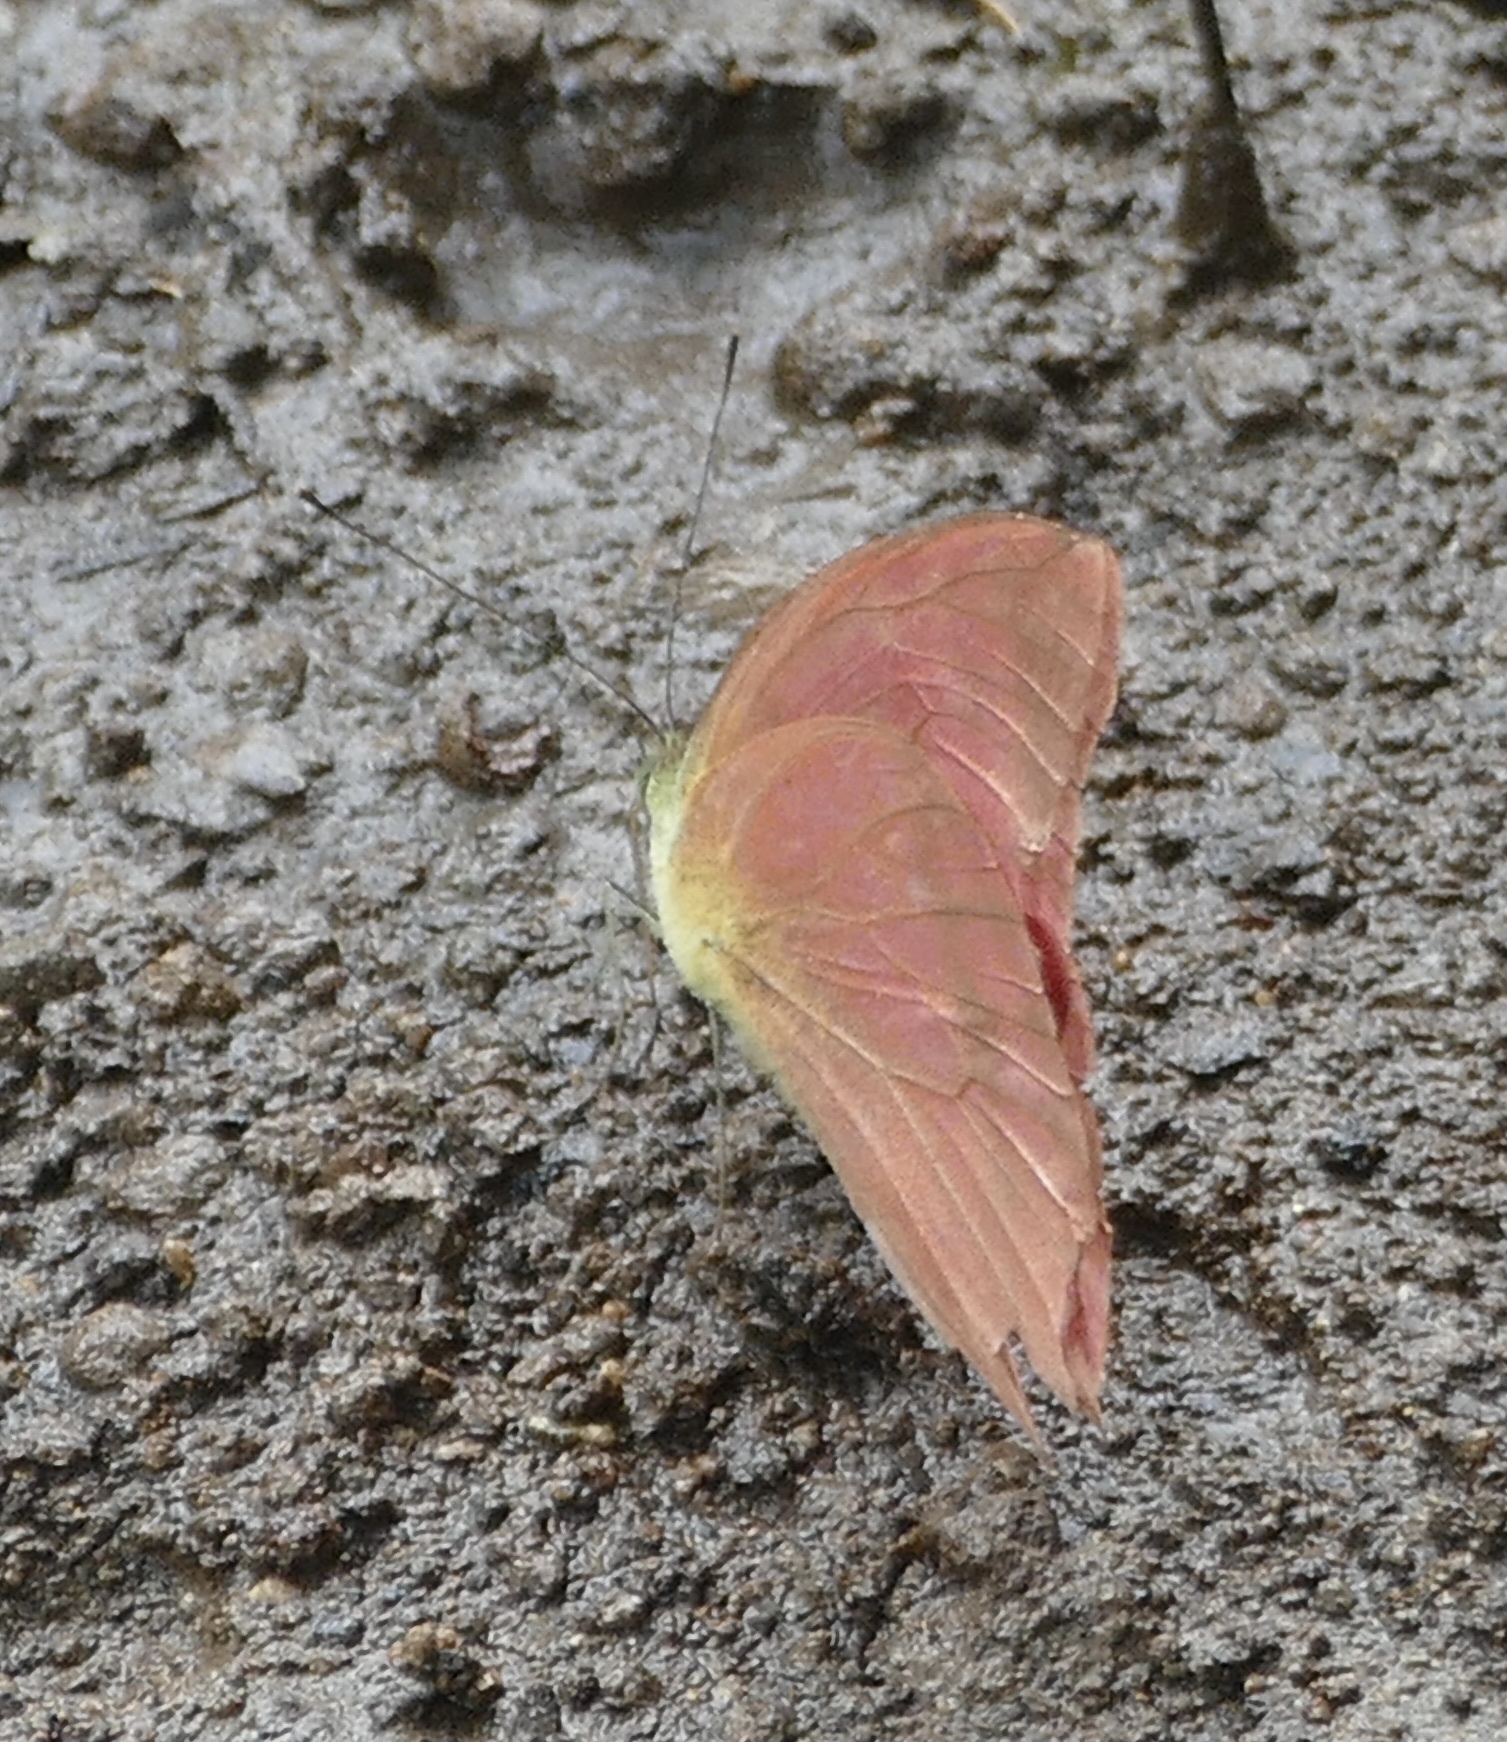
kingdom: Animalia
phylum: Arthropoda
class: Insecta
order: Lepidoptera
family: Pieridae
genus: Appias
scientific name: Appias zarinda
